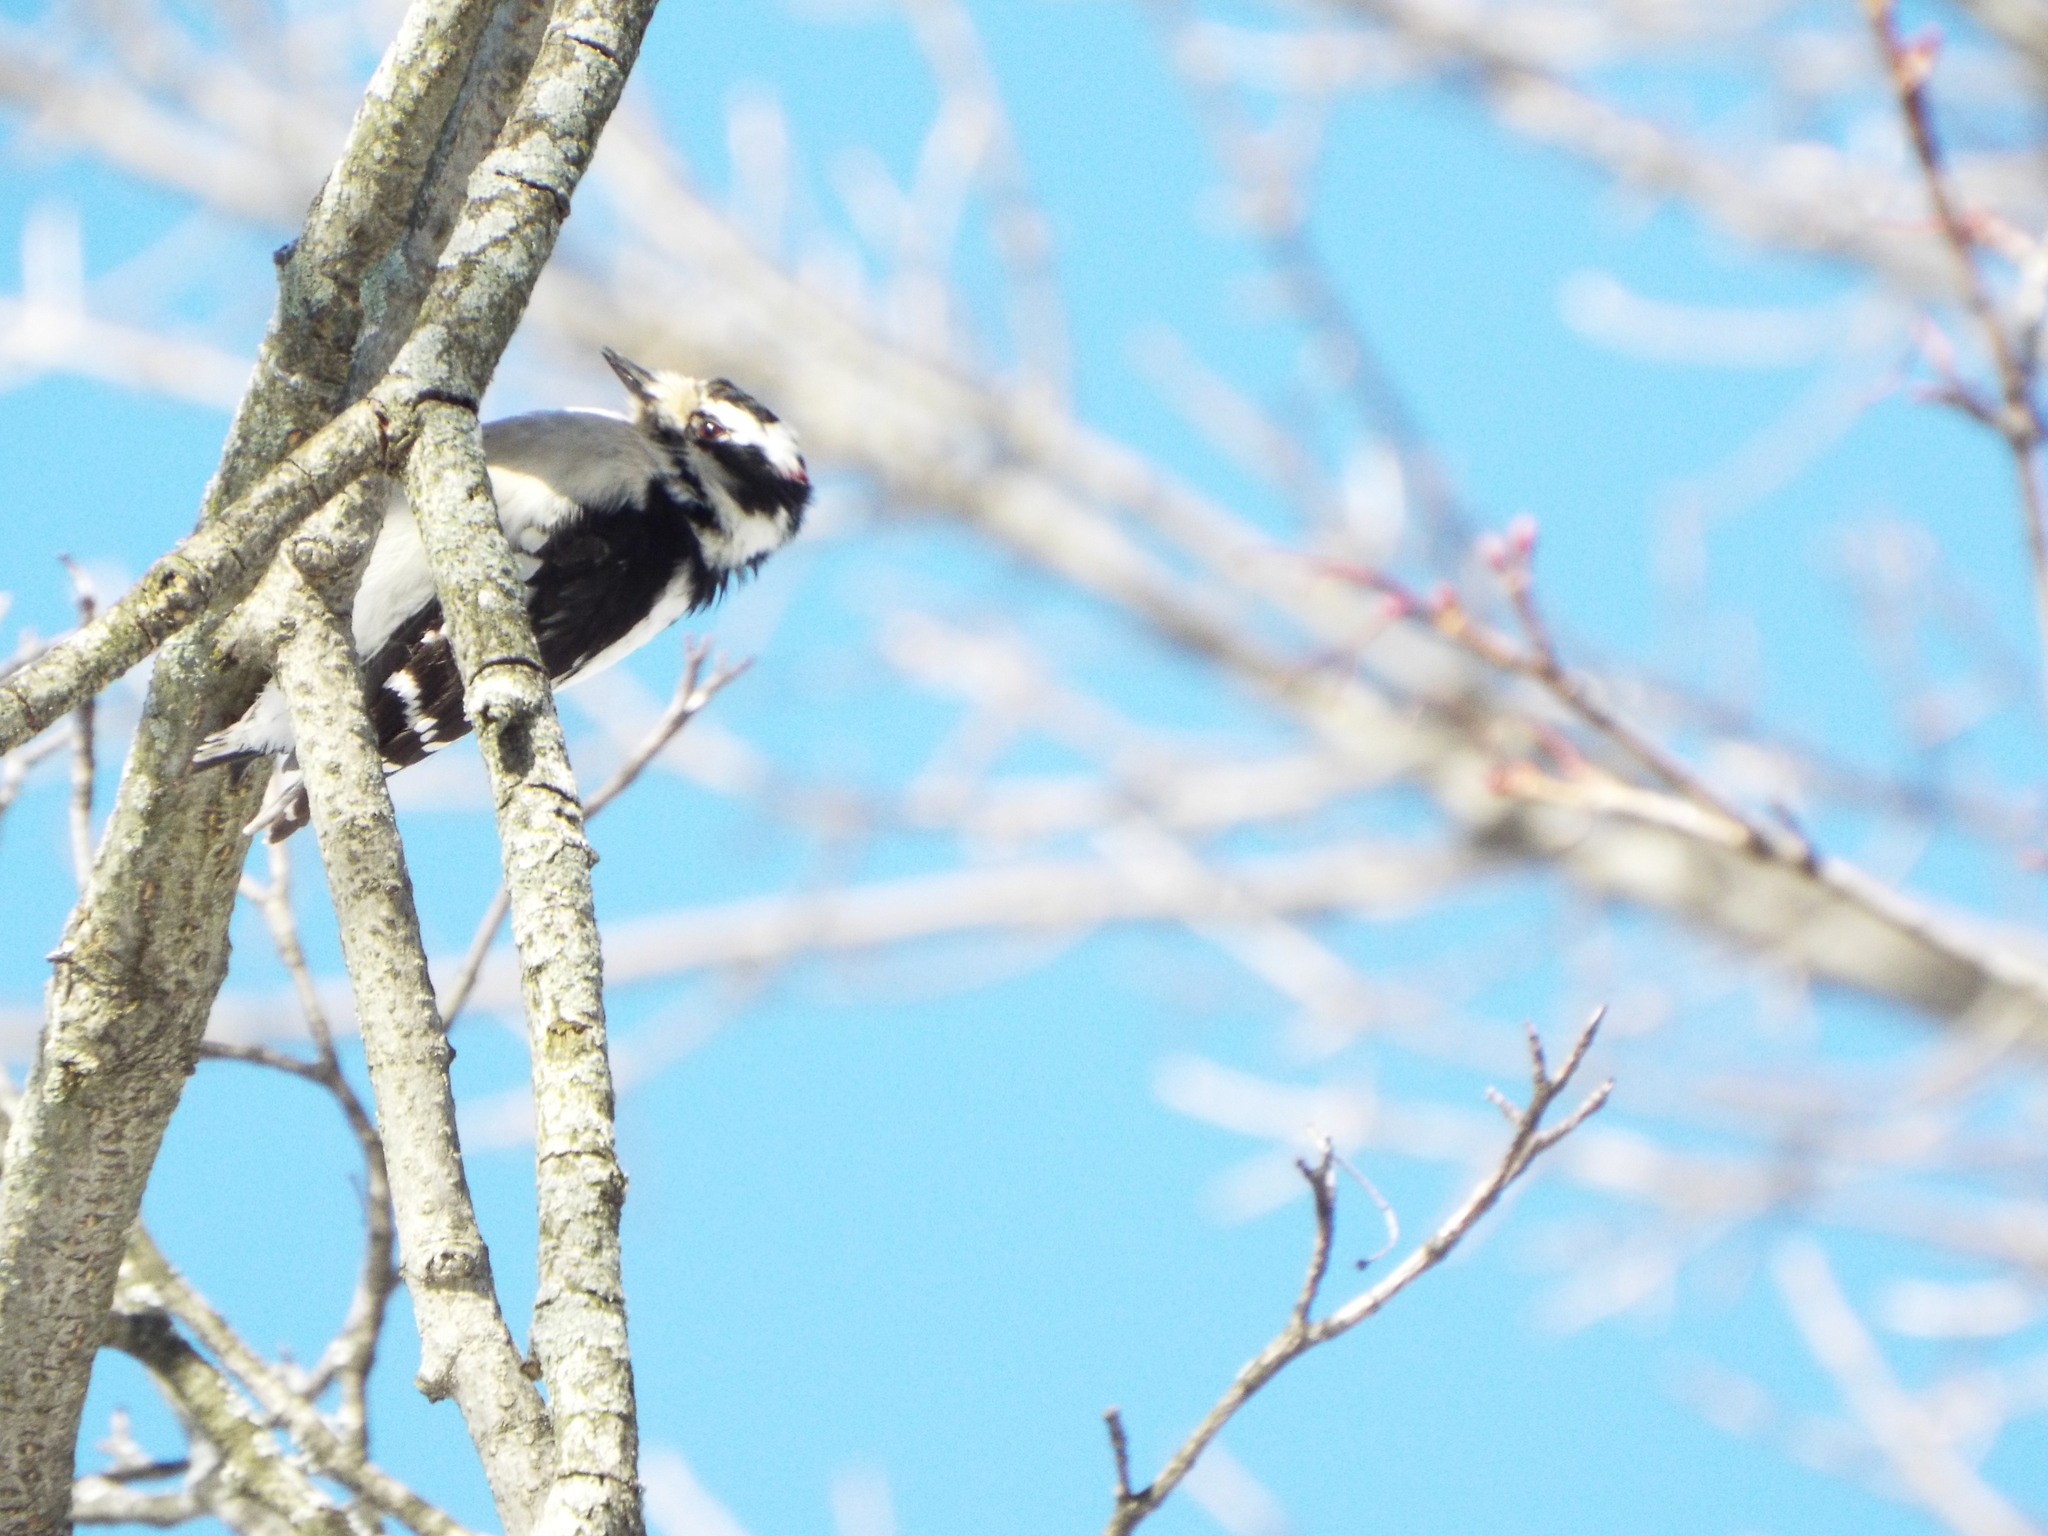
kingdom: Animalia
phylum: Chordata
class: Aves
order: Piciformes
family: Picidae
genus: Dryobates
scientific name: Dryobates pubescens
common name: Downy woodpecker
